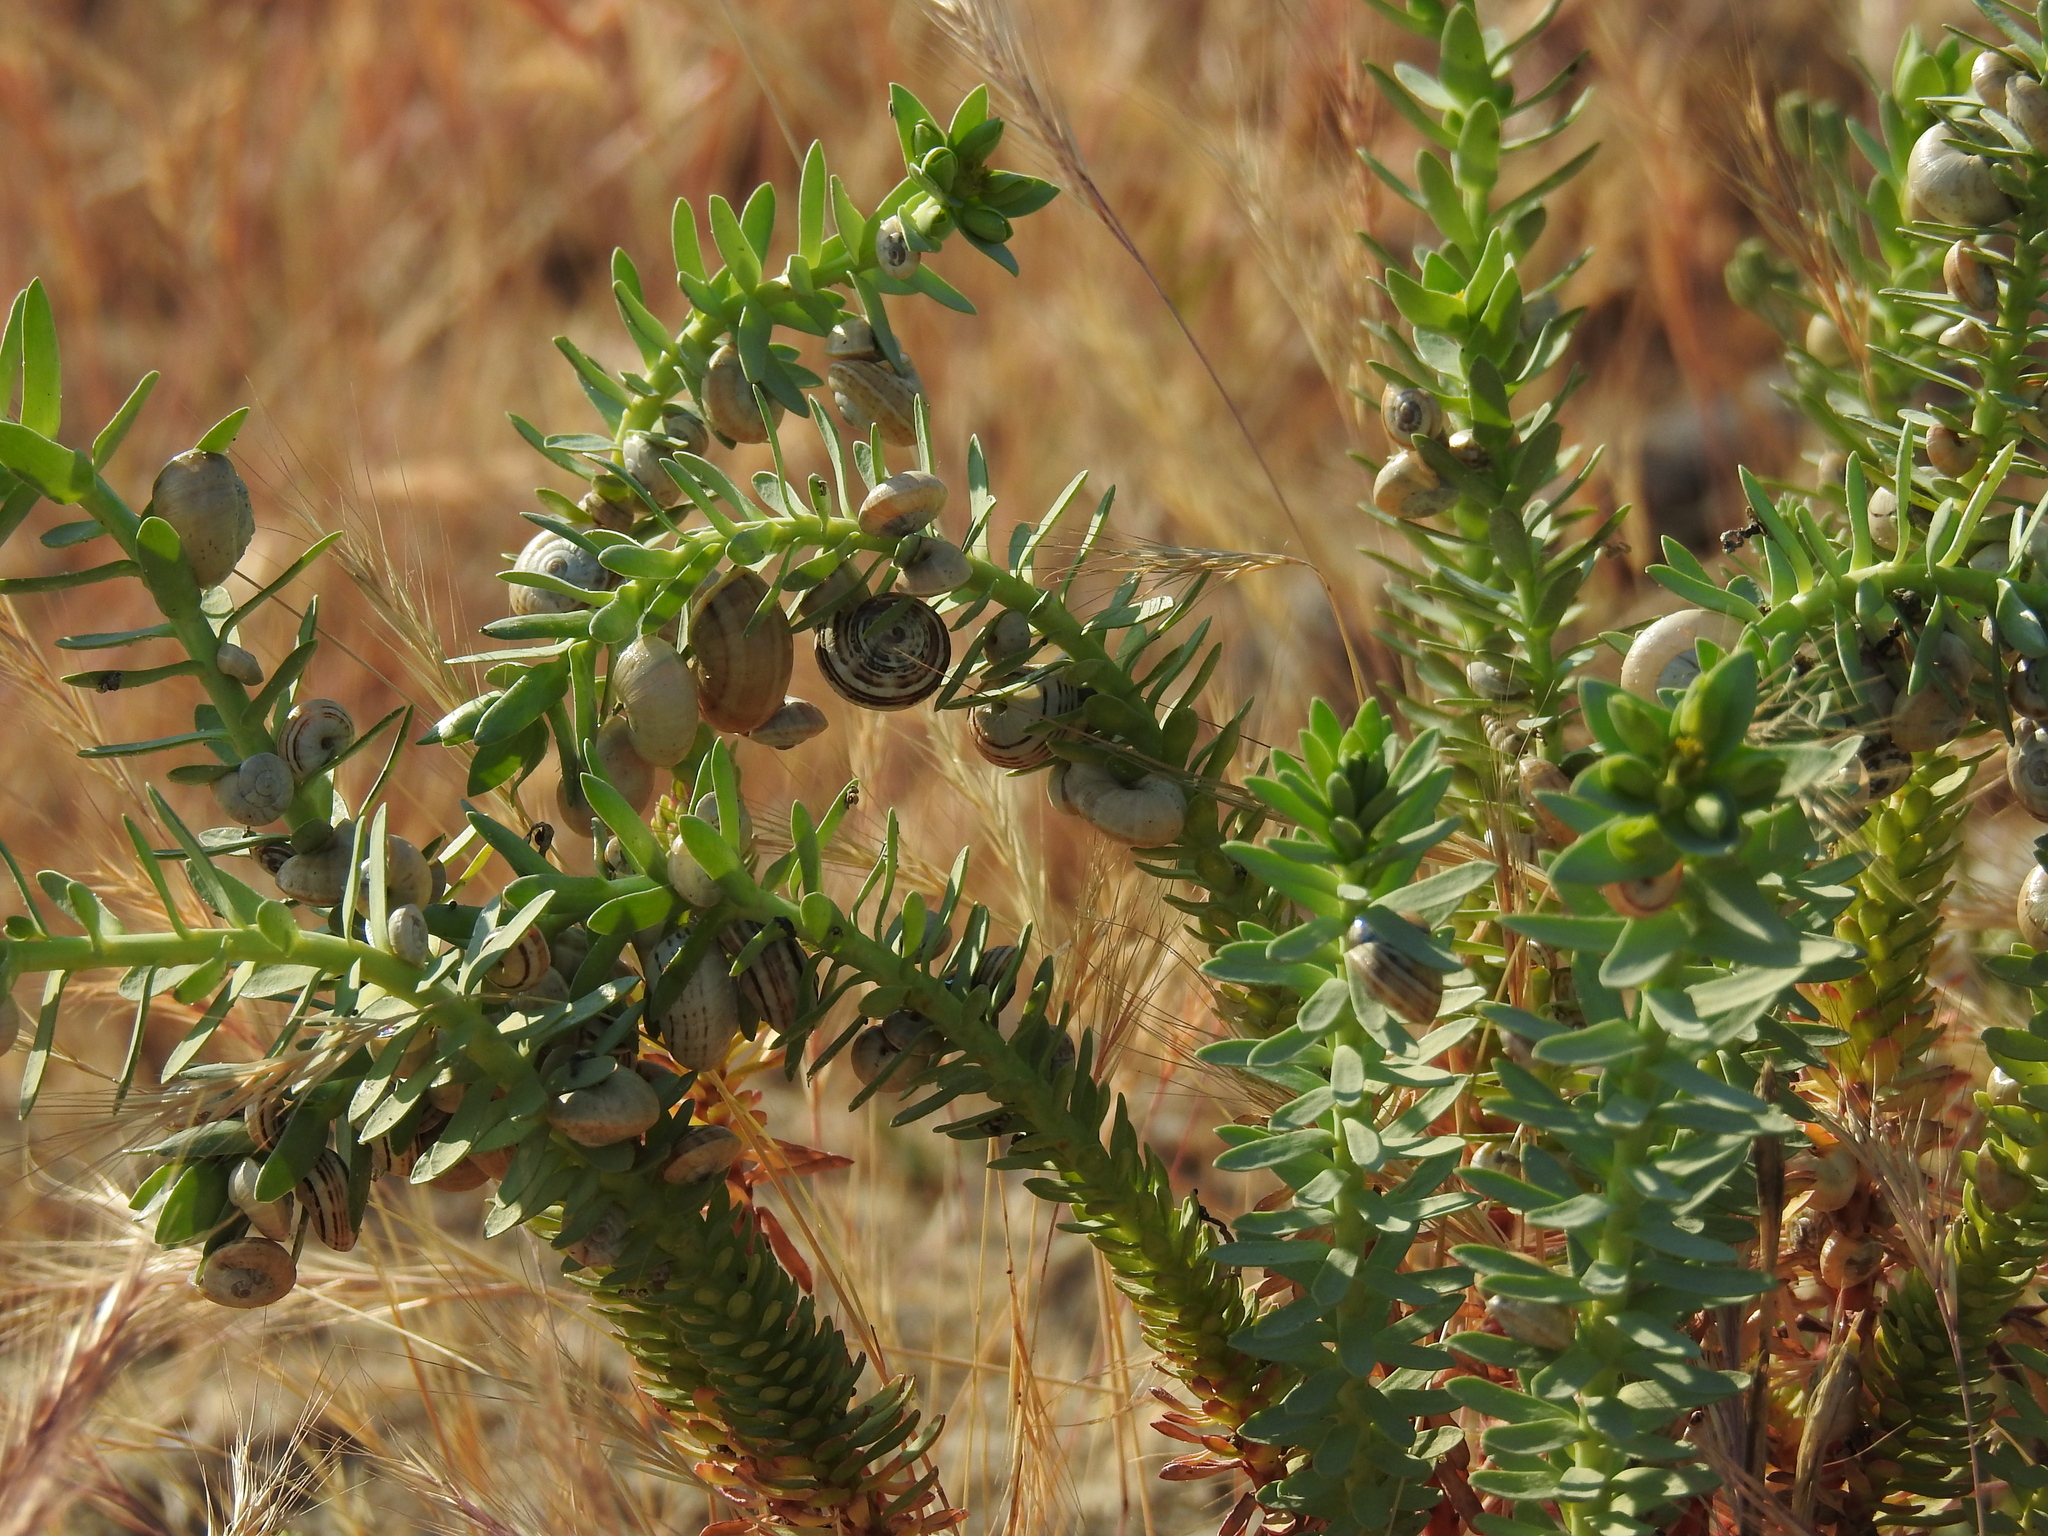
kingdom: Animalia
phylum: Mollusca
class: Gastropoda
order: Stylommatophora
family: Helicidae
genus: Theba
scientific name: Theba pisana
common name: White snail
